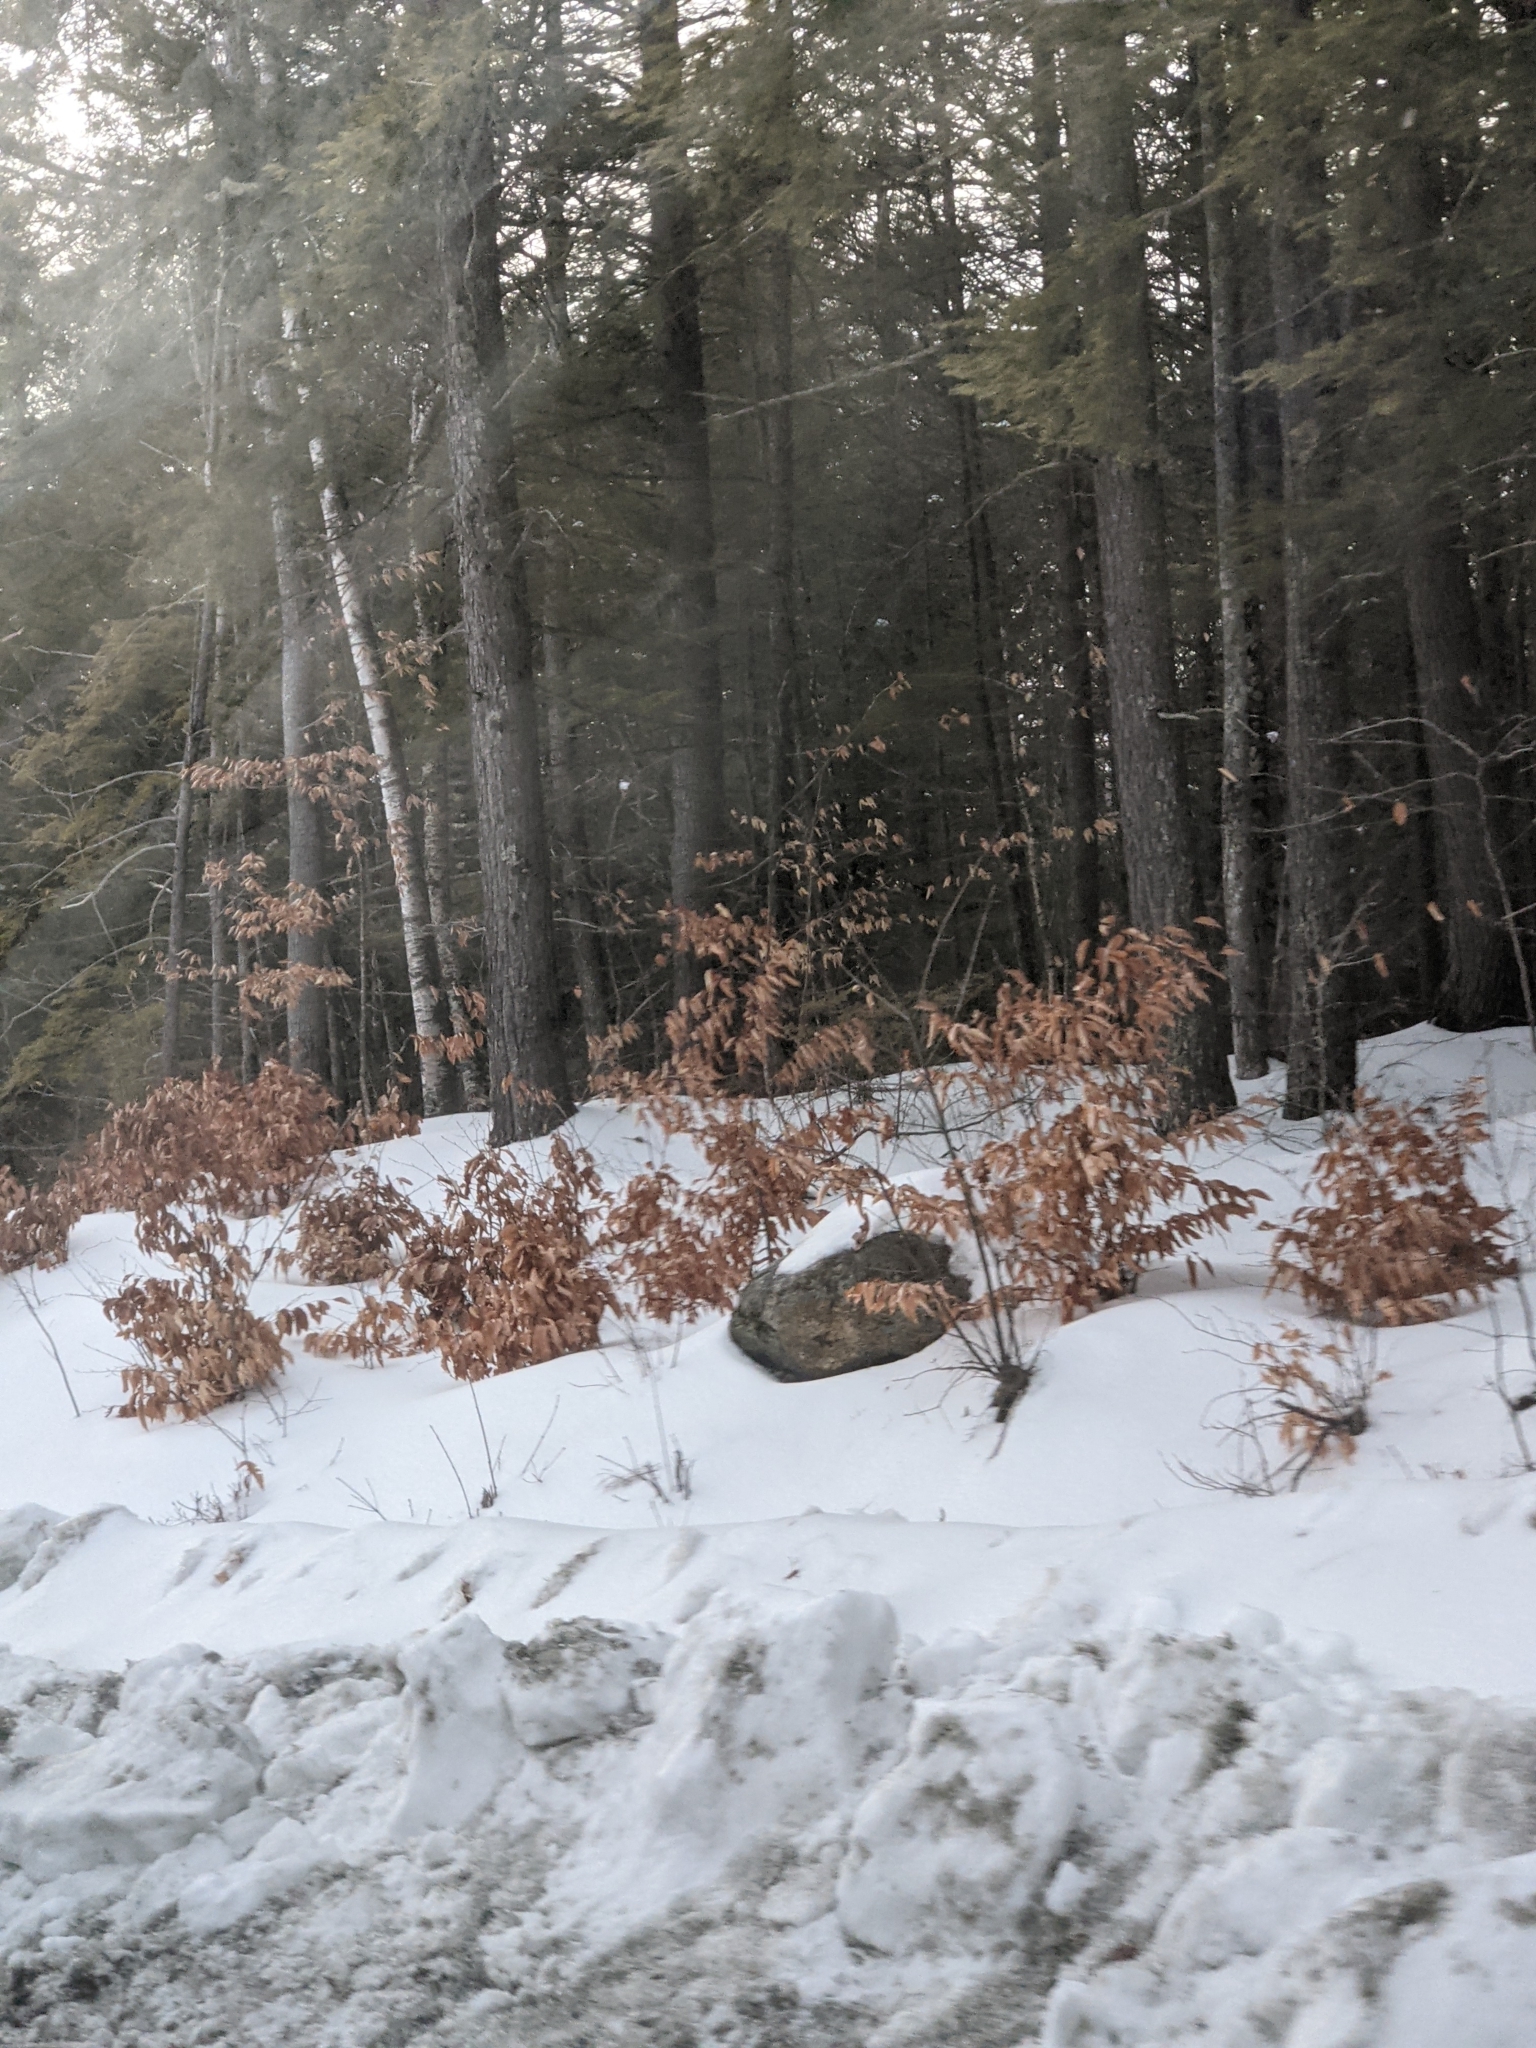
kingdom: Plantae
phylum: Tracheophyta
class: Magnoliopsida
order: Fagales
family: Fagaceae
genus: Fagus
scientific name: Fagus grandifolia
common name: American beech
